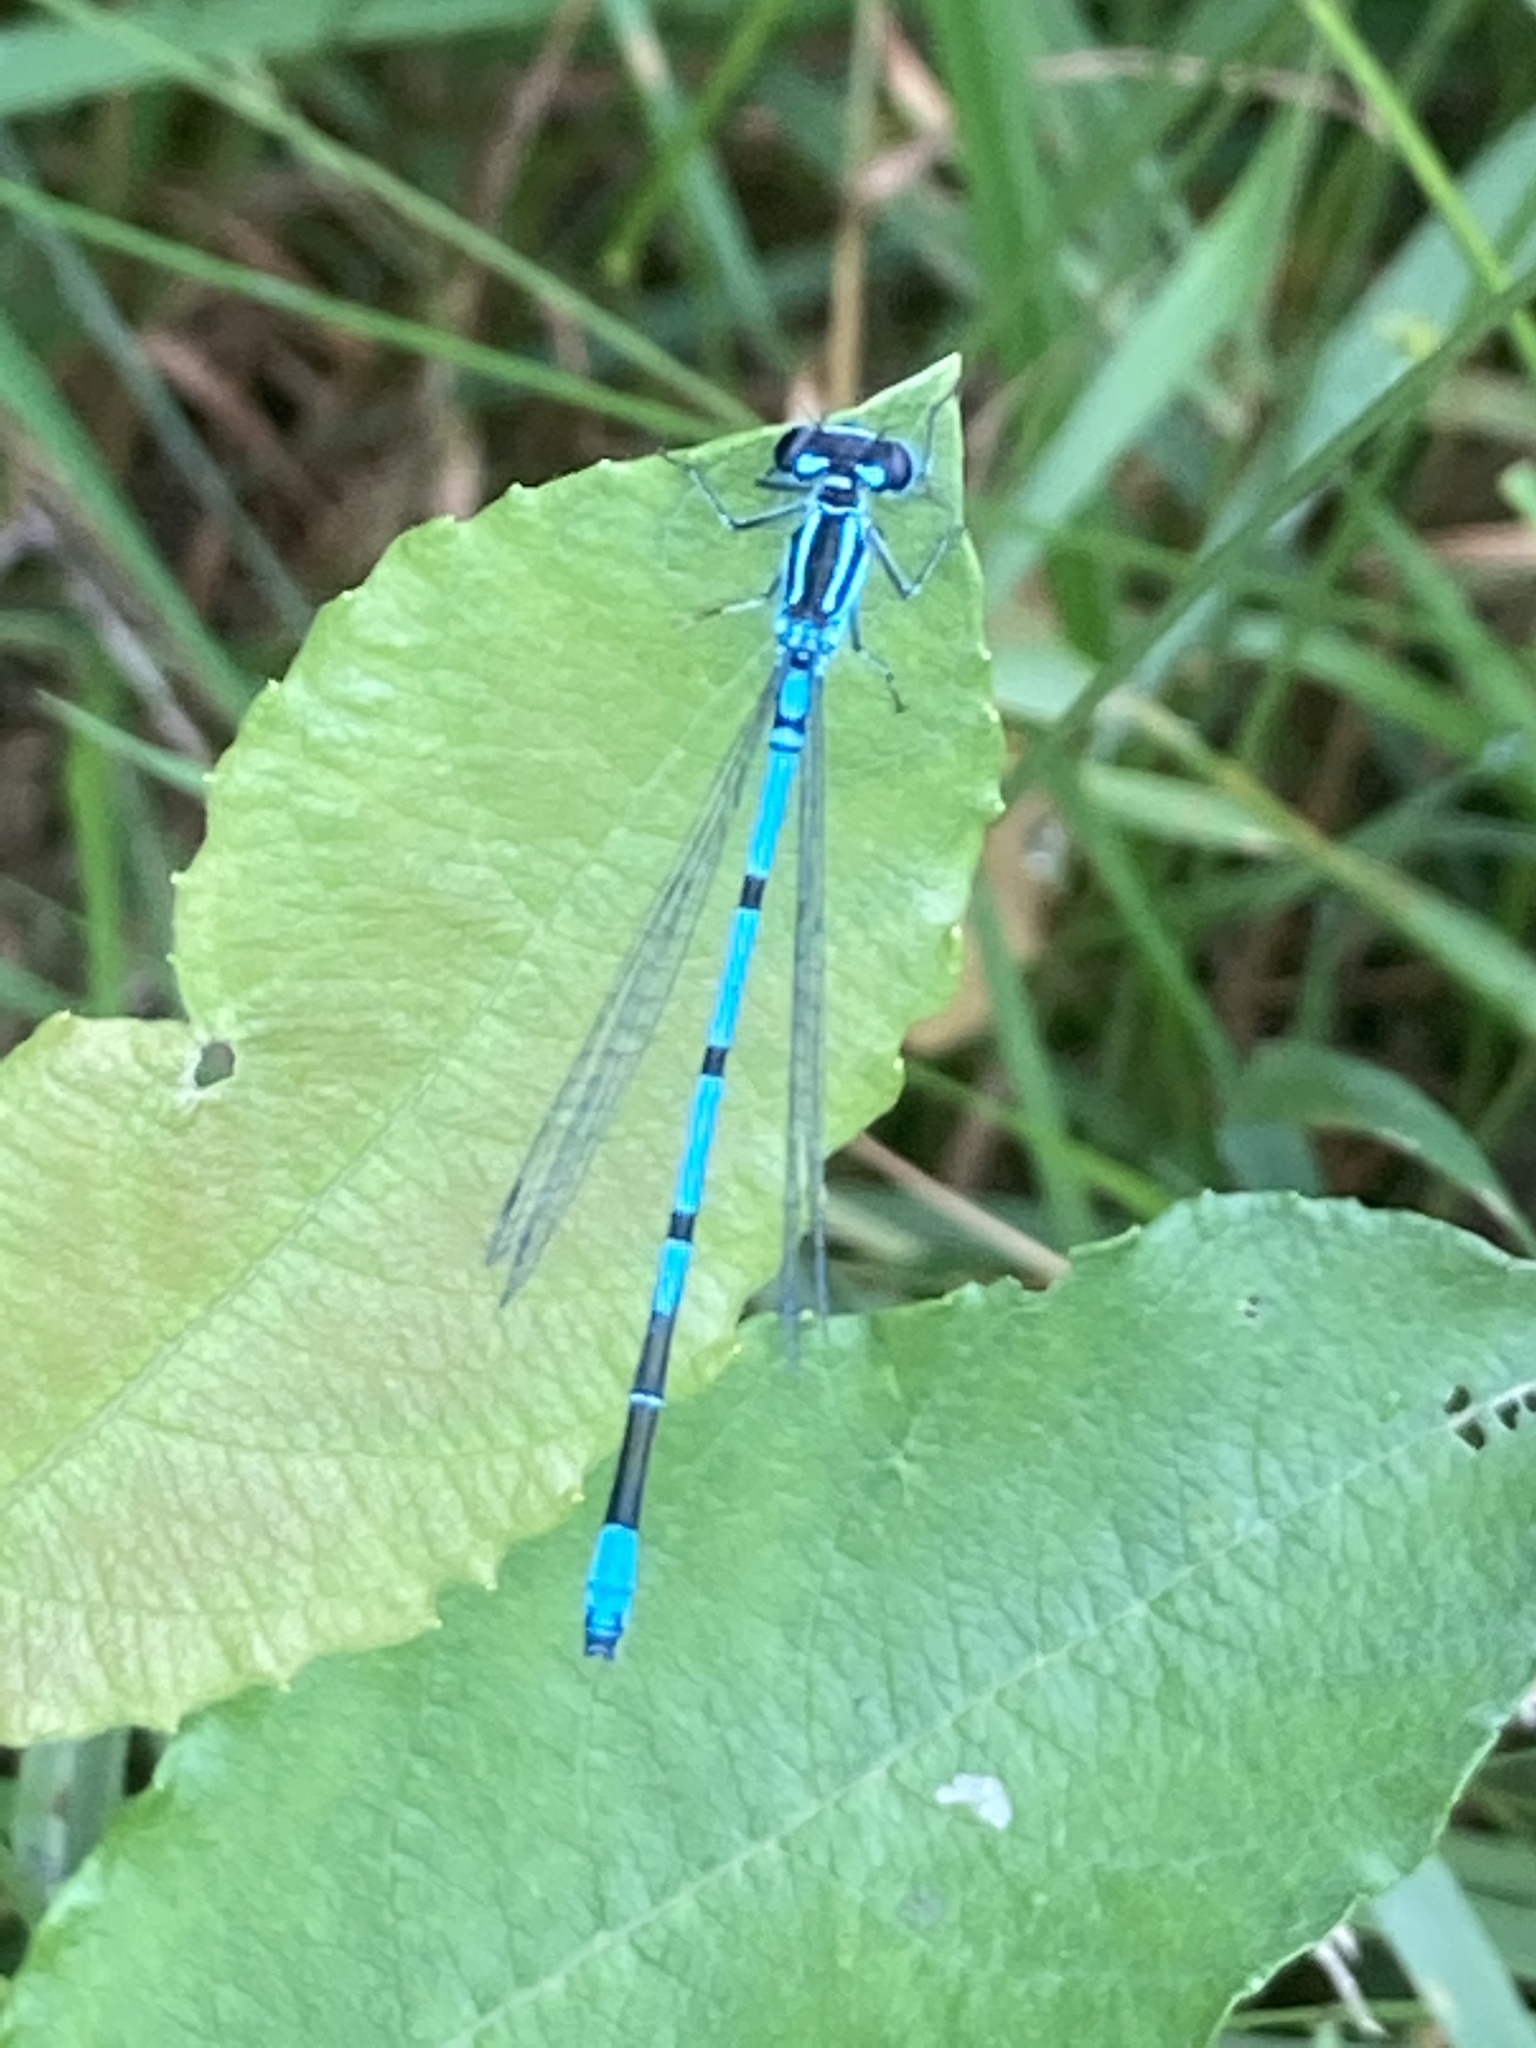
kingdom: Animalia
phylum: Arthropoda
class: Insecta
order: Odonata
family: Coenagrionidae
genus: Coenagrion
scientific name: Coenagrion puella
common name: Azure damselfly
